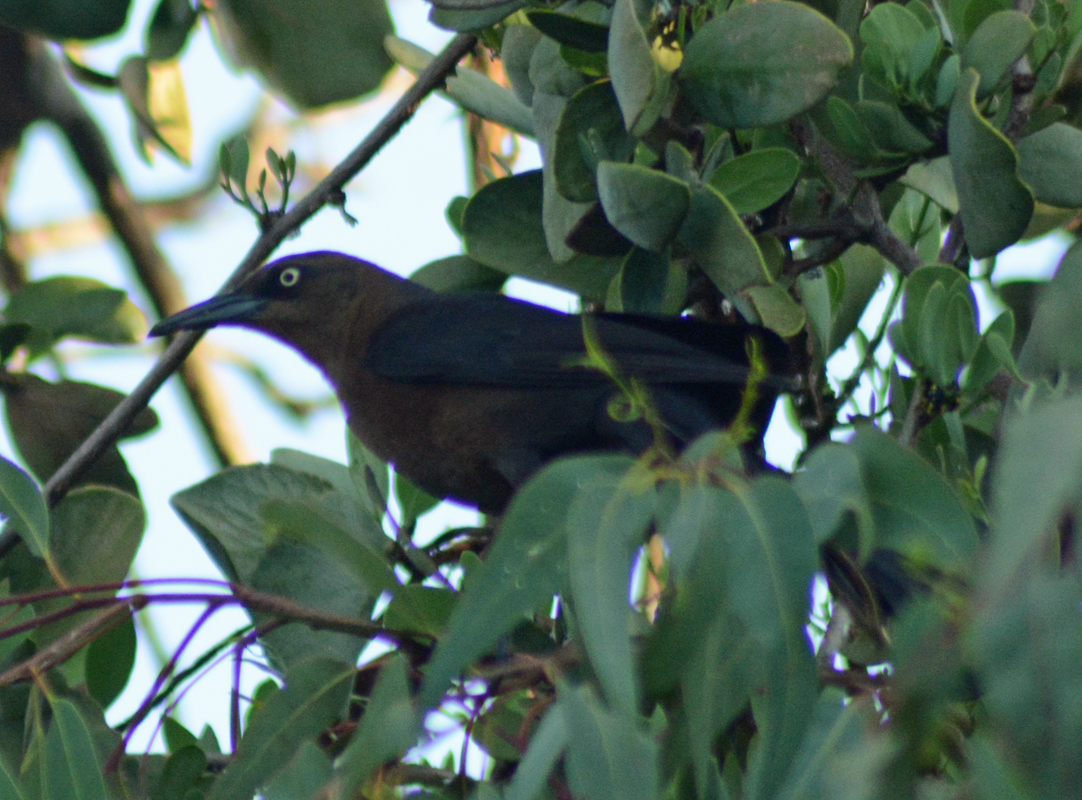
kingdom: Animalia
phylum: Chordata
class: Aves
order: Passeriformes
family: Icteridae
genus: Quiscalus
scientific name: Quiscalus mexicanus
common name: Great-tailed grackle
